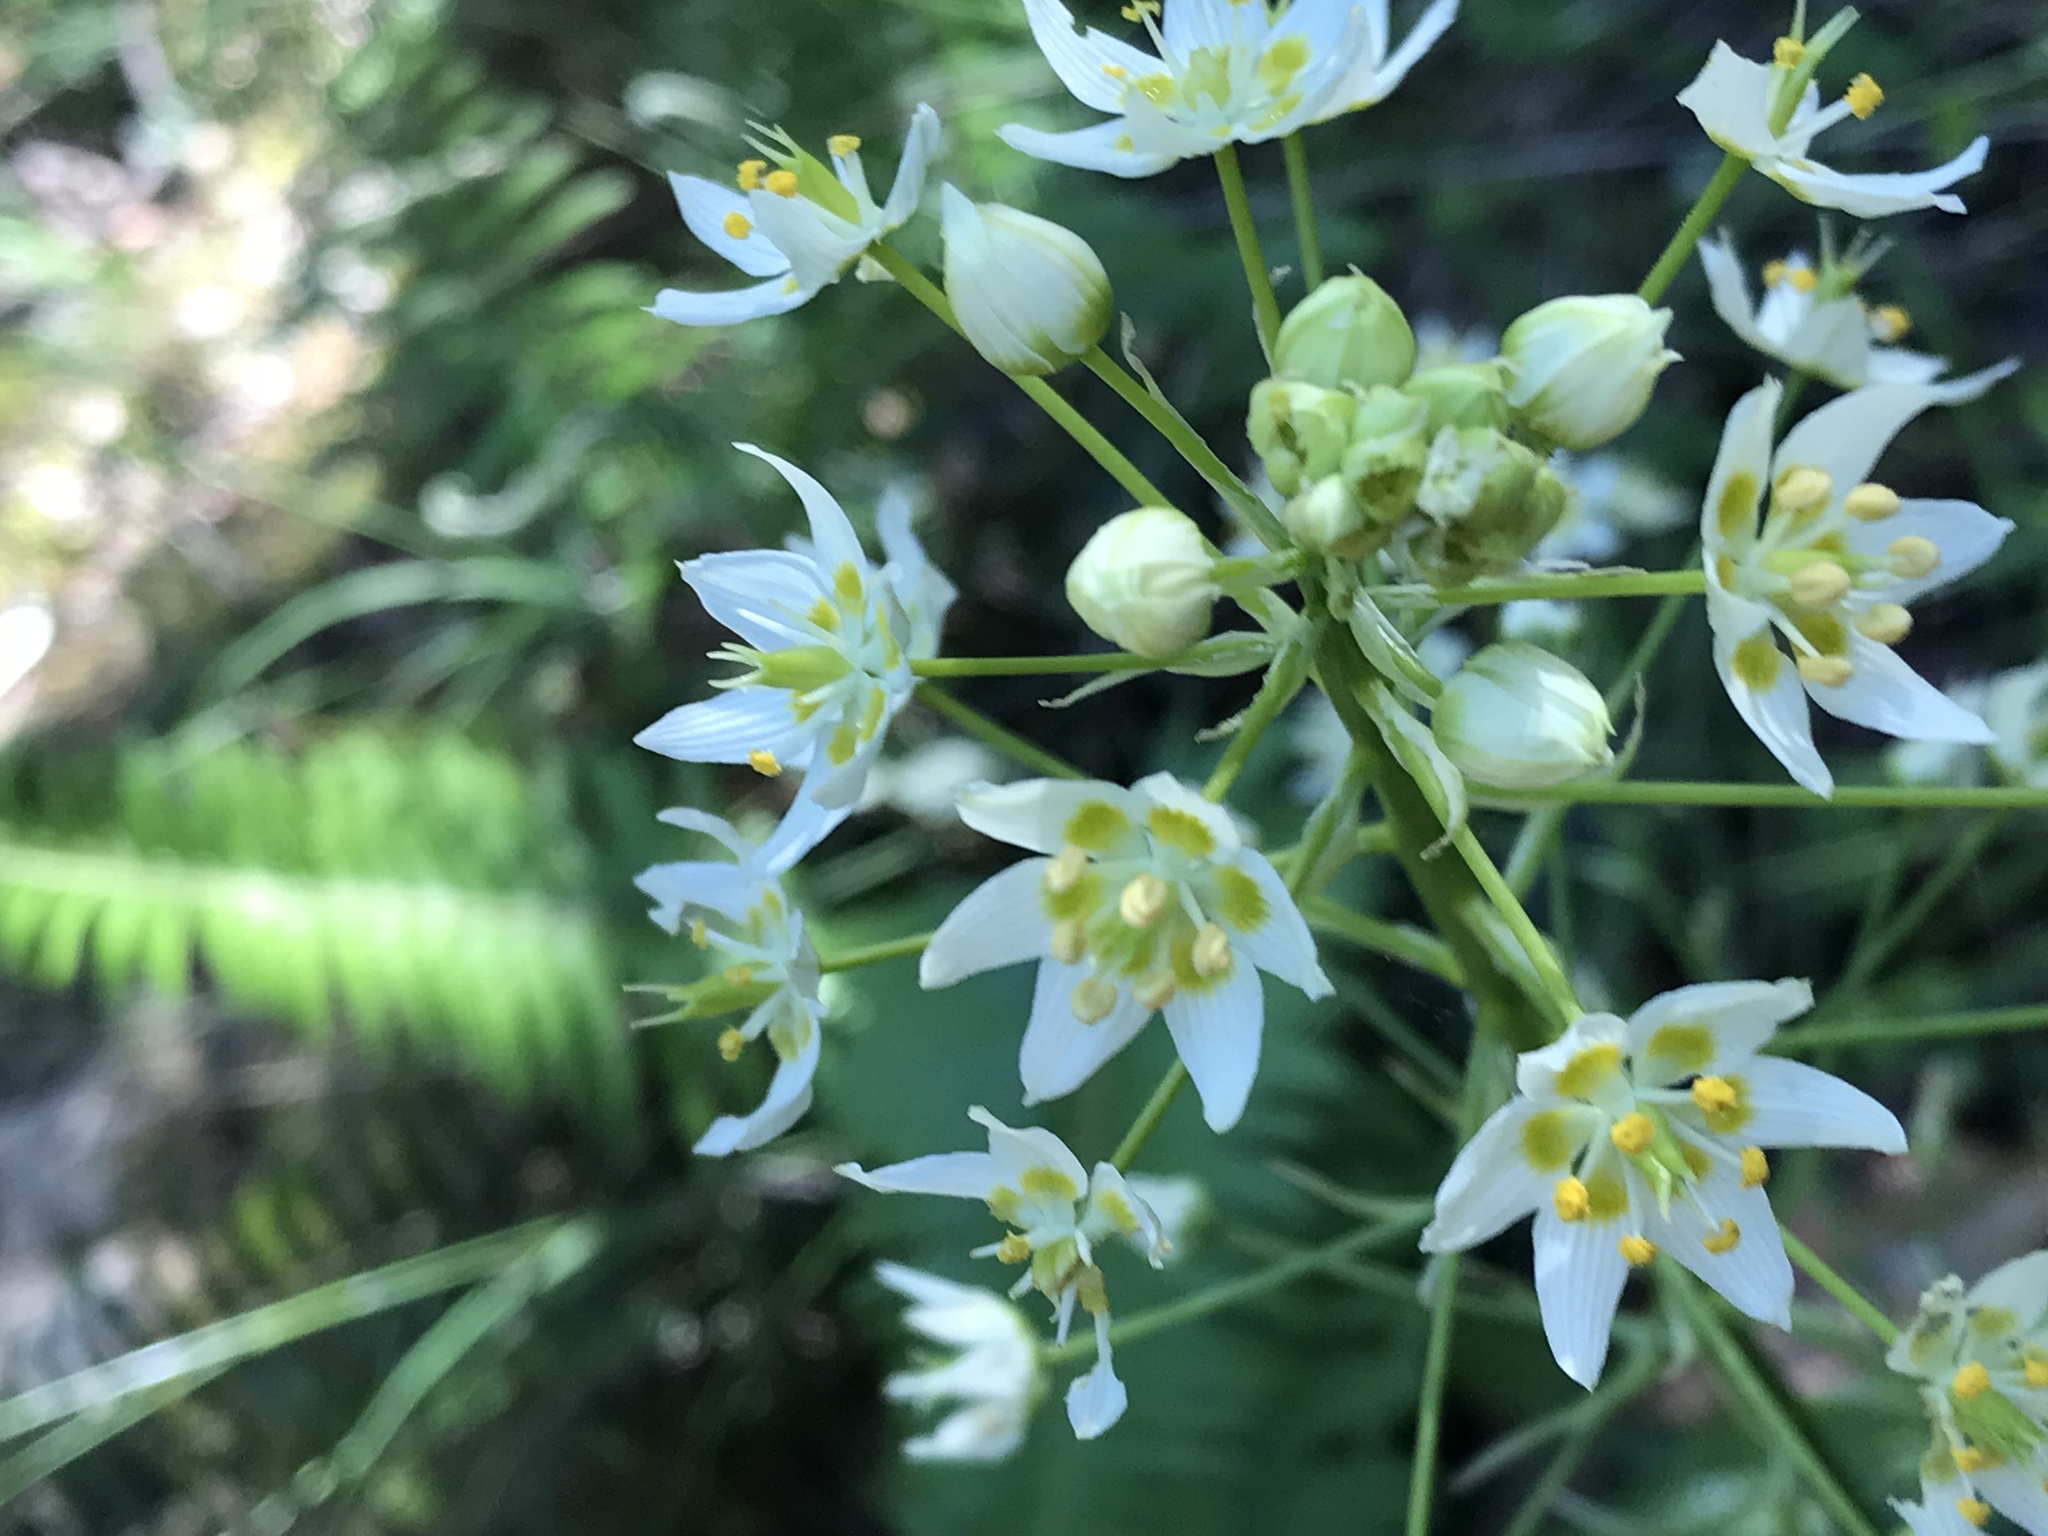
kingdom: Plantae
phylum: Tracheophyta
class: Liliopsida
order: Liliales
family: Melanthiaceae
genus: Toxicoscordion
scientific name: Toxicoscordion fremontii
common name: Fremont's death camas
